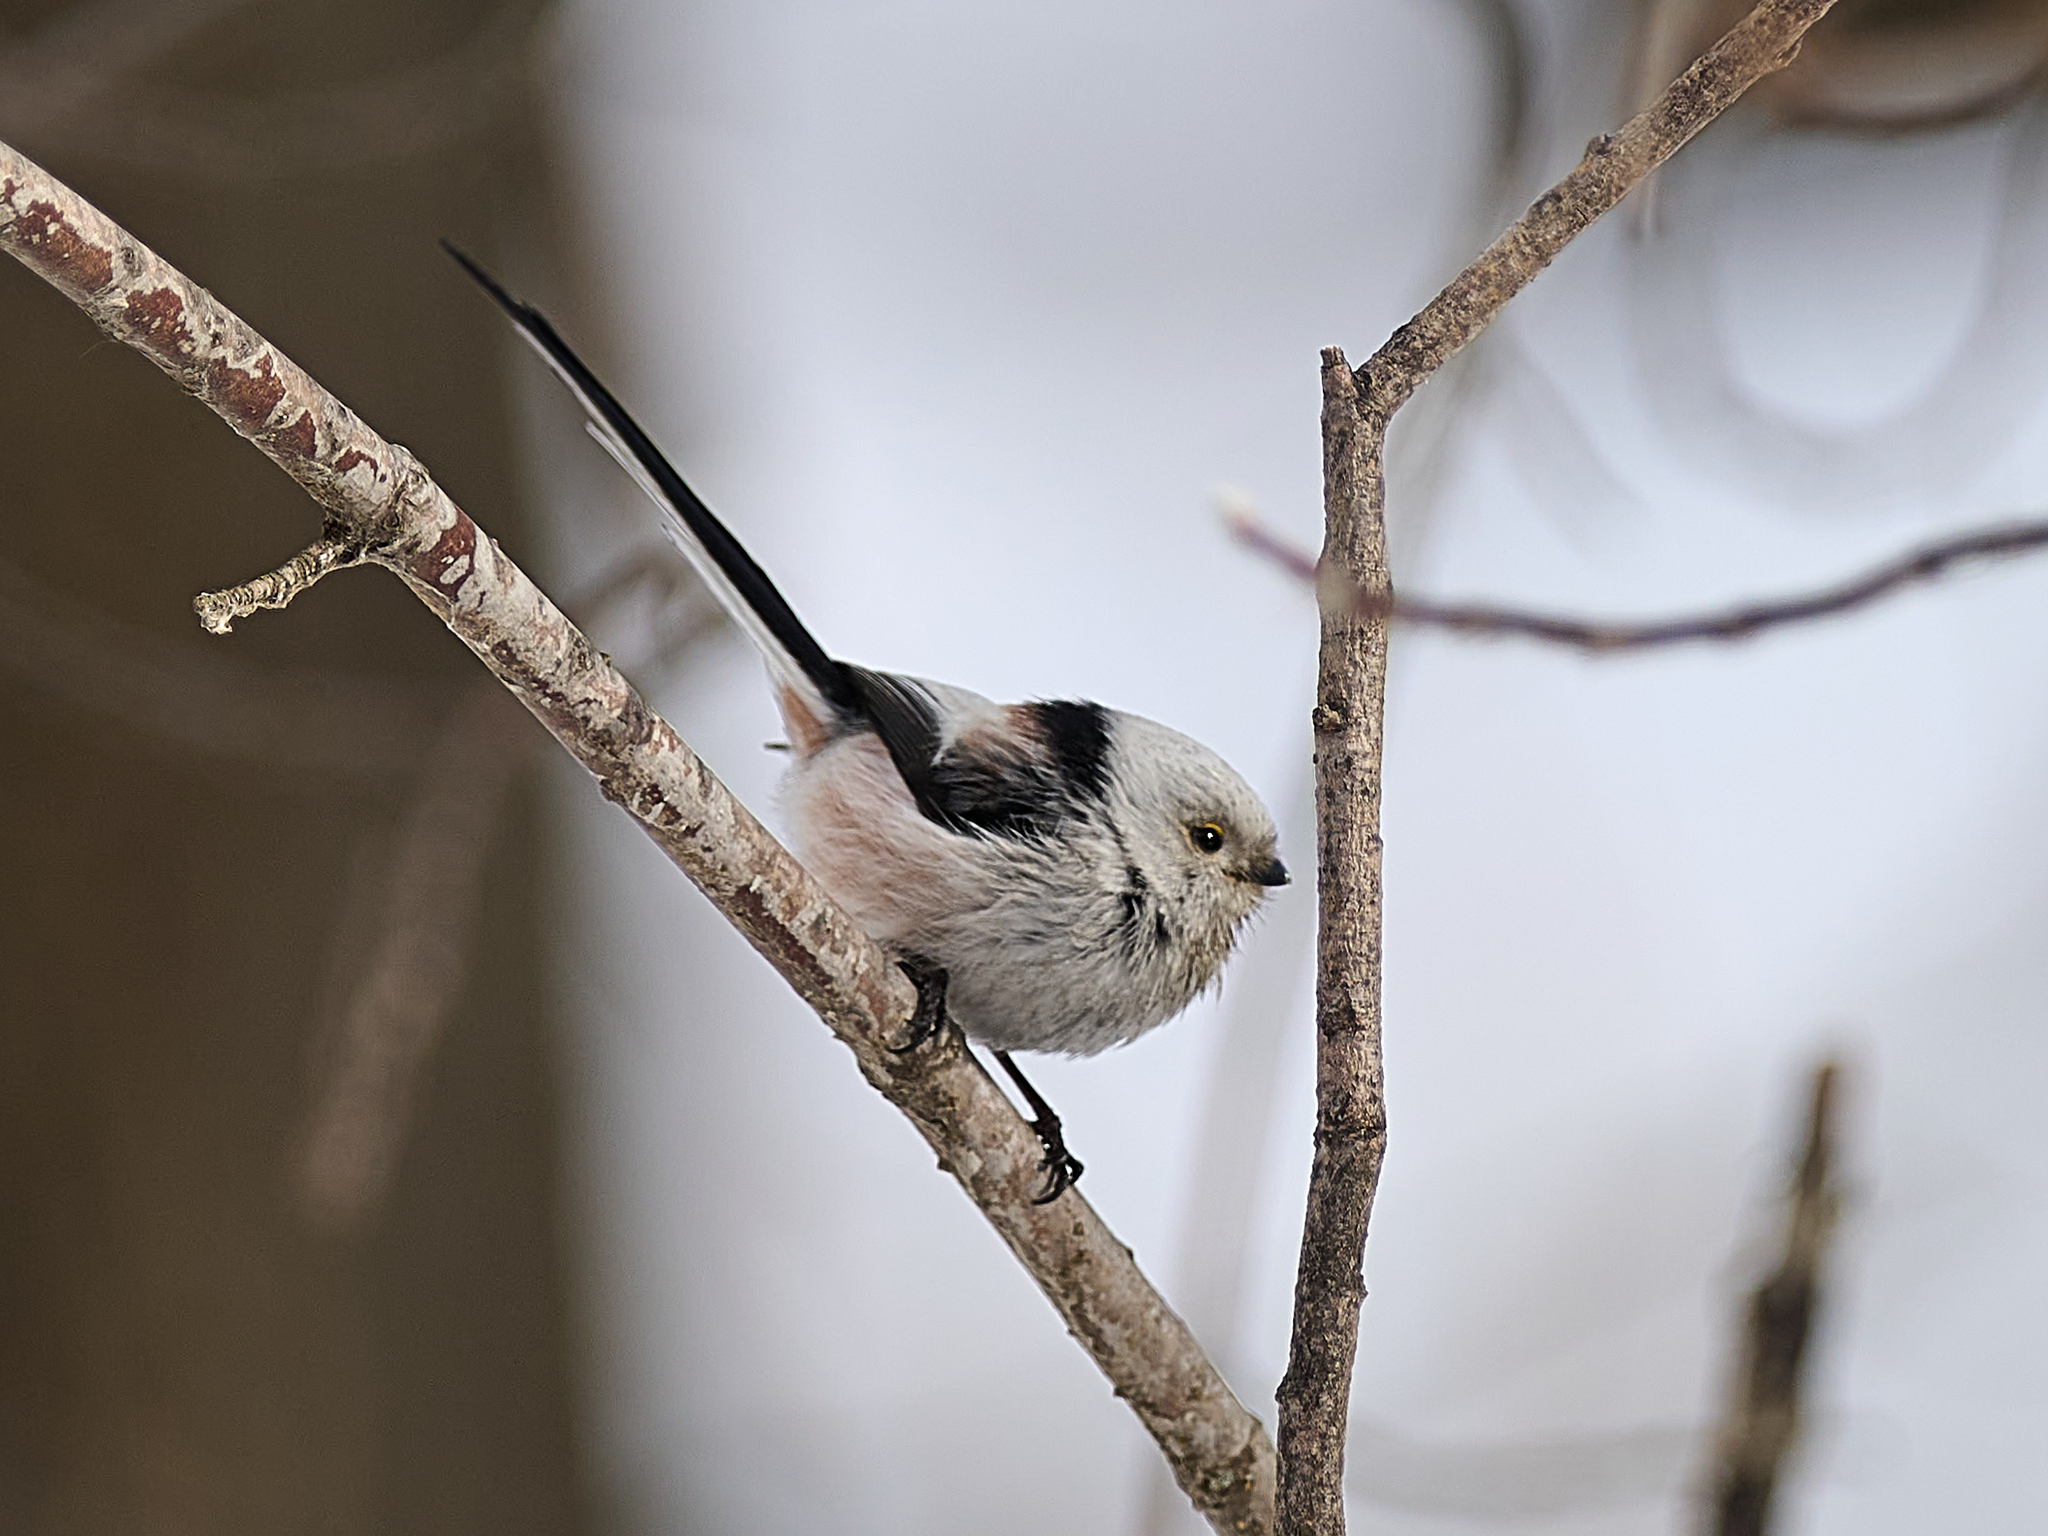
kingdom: Animalia
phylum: Chordata
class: Aves
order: Passeriformes
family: Aegithalidae
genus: Aegithalos
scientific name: Aegithalos caudatus
